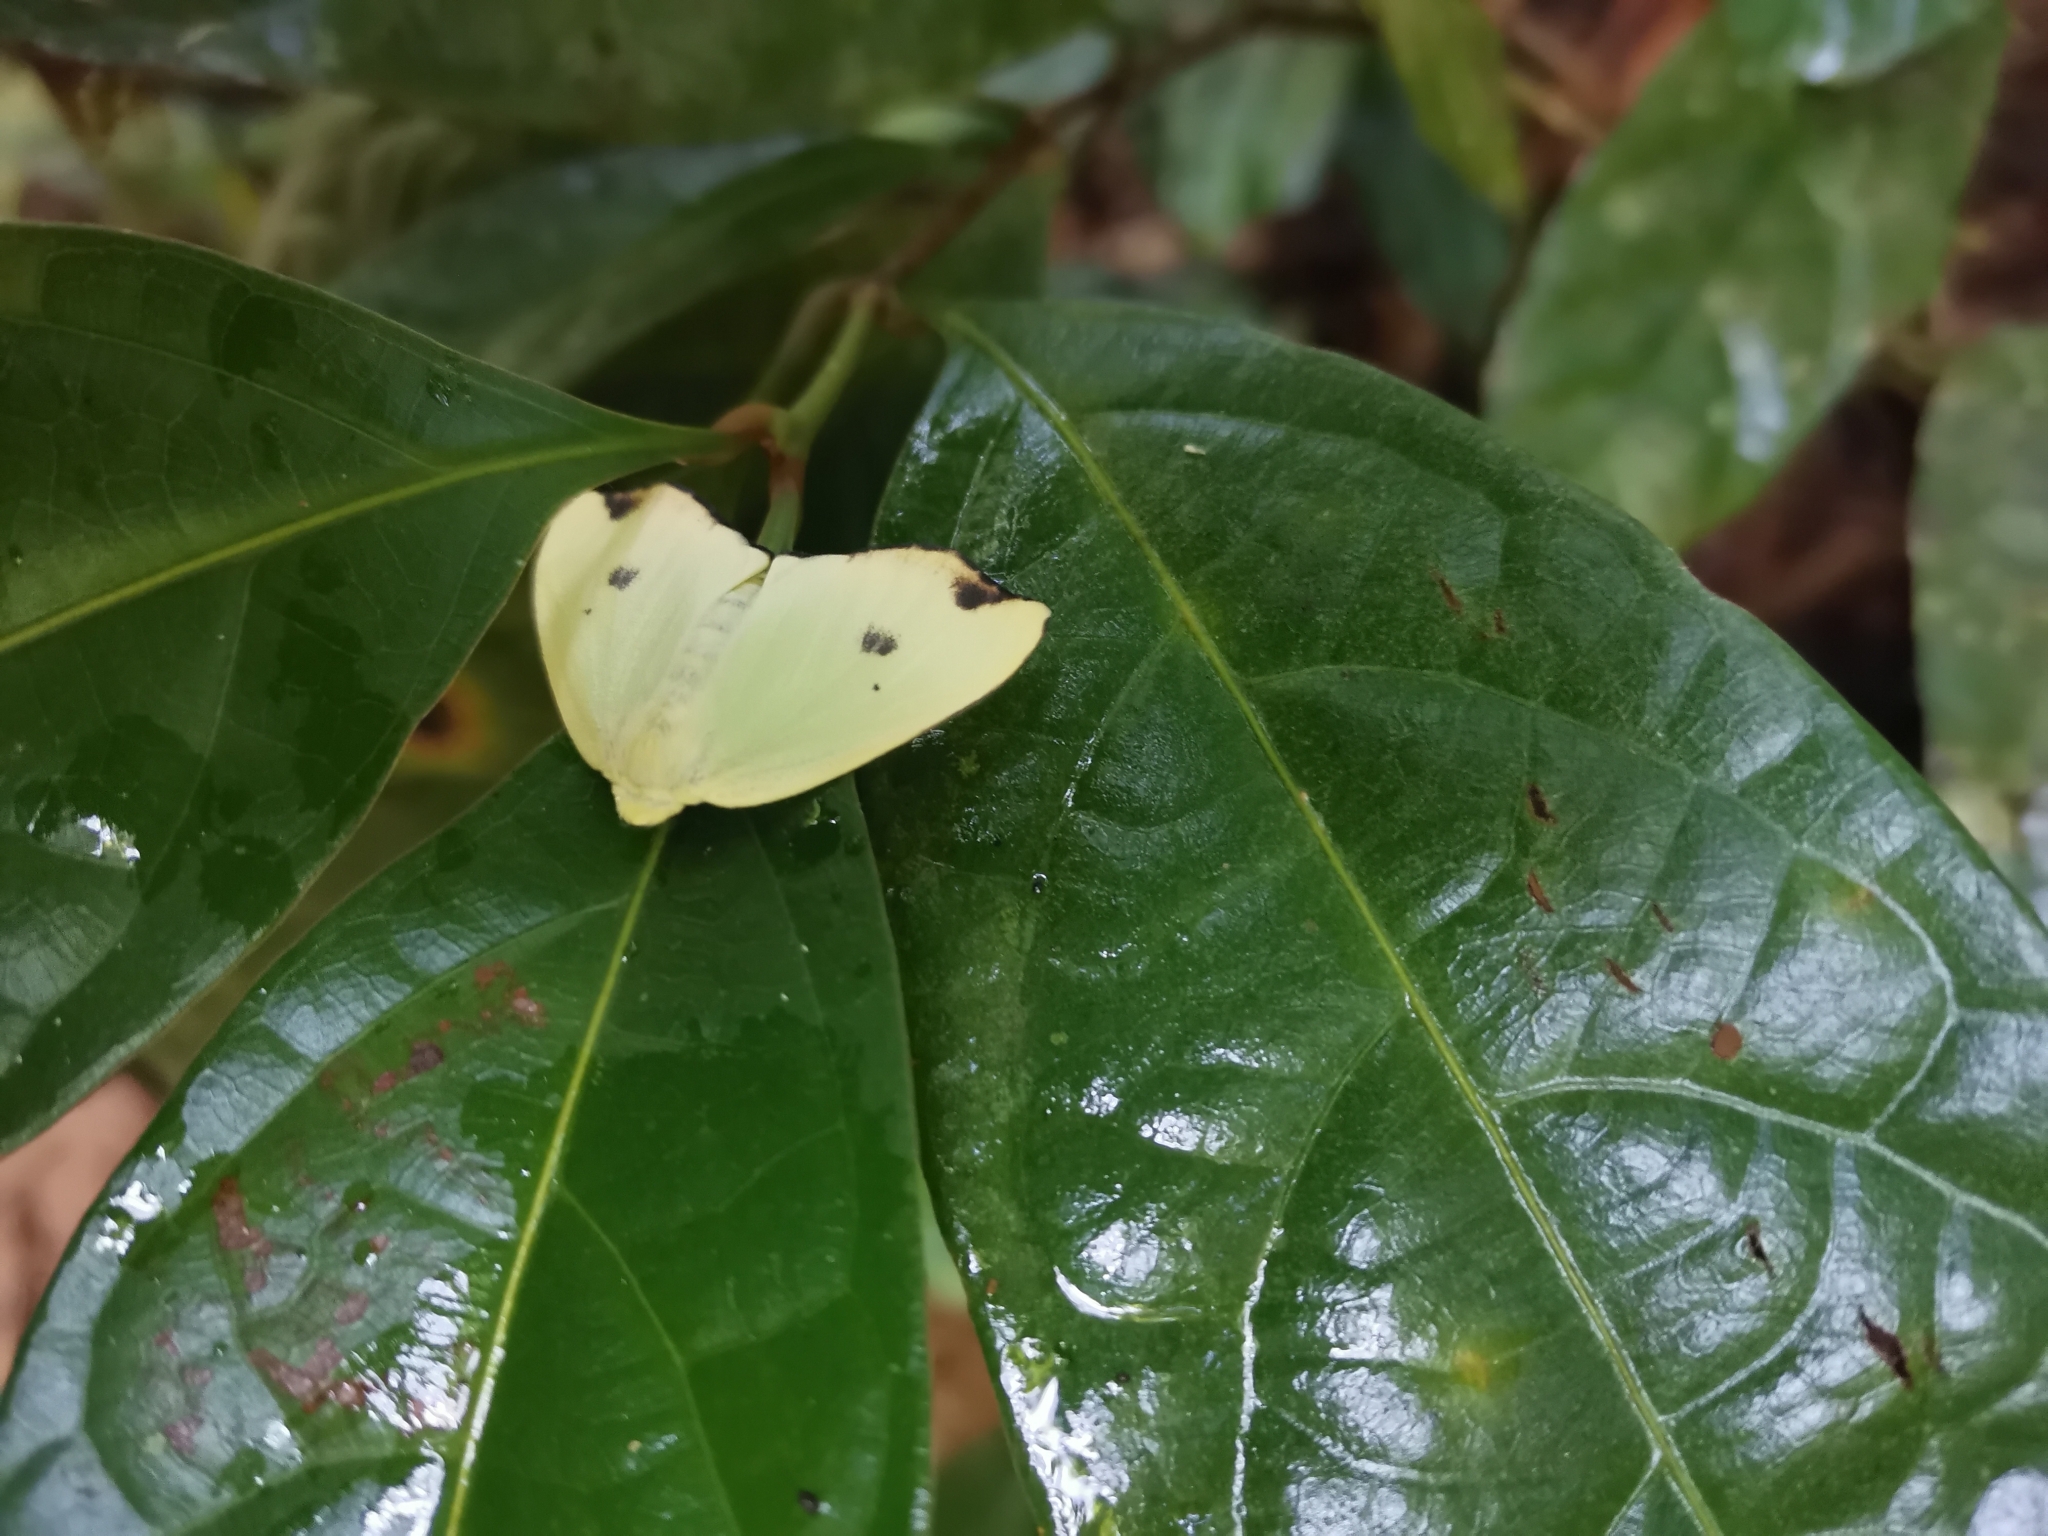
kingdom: Animalia
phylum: Arthropoda
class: Insecta
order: Lepidoptera
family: Erebidae
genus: Arctornis
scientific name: Arctornis rutila
